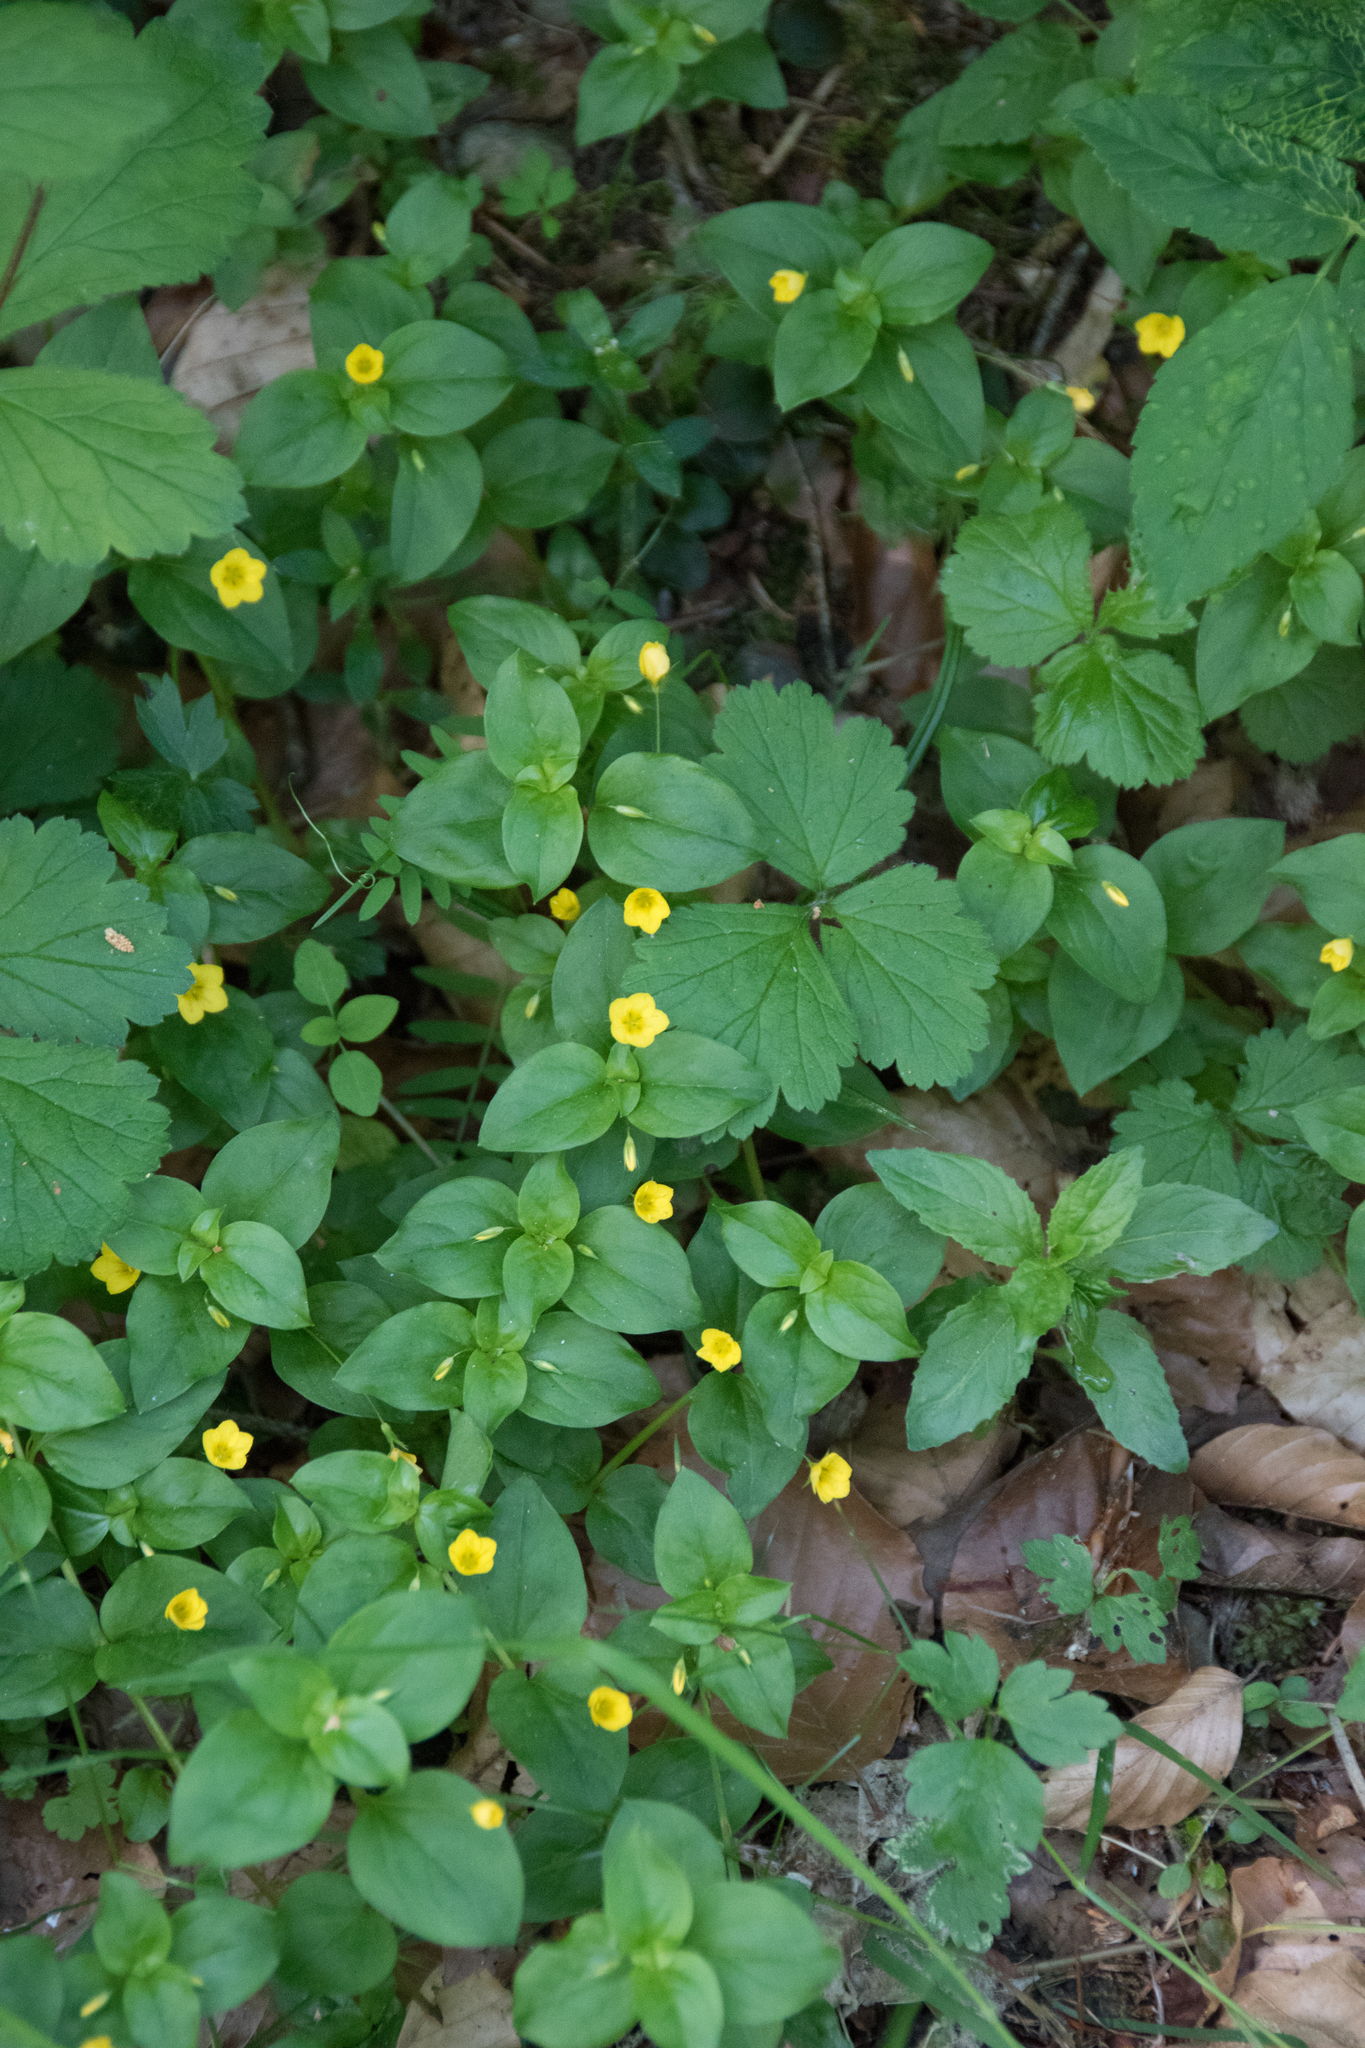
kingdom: Plantae
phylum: Tracheophyta
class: Magnoliopsida
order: Ericales
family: Primulaceae
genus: Lysimachia
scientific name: Lysimachia nemorum
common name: Yellow pimpernel
